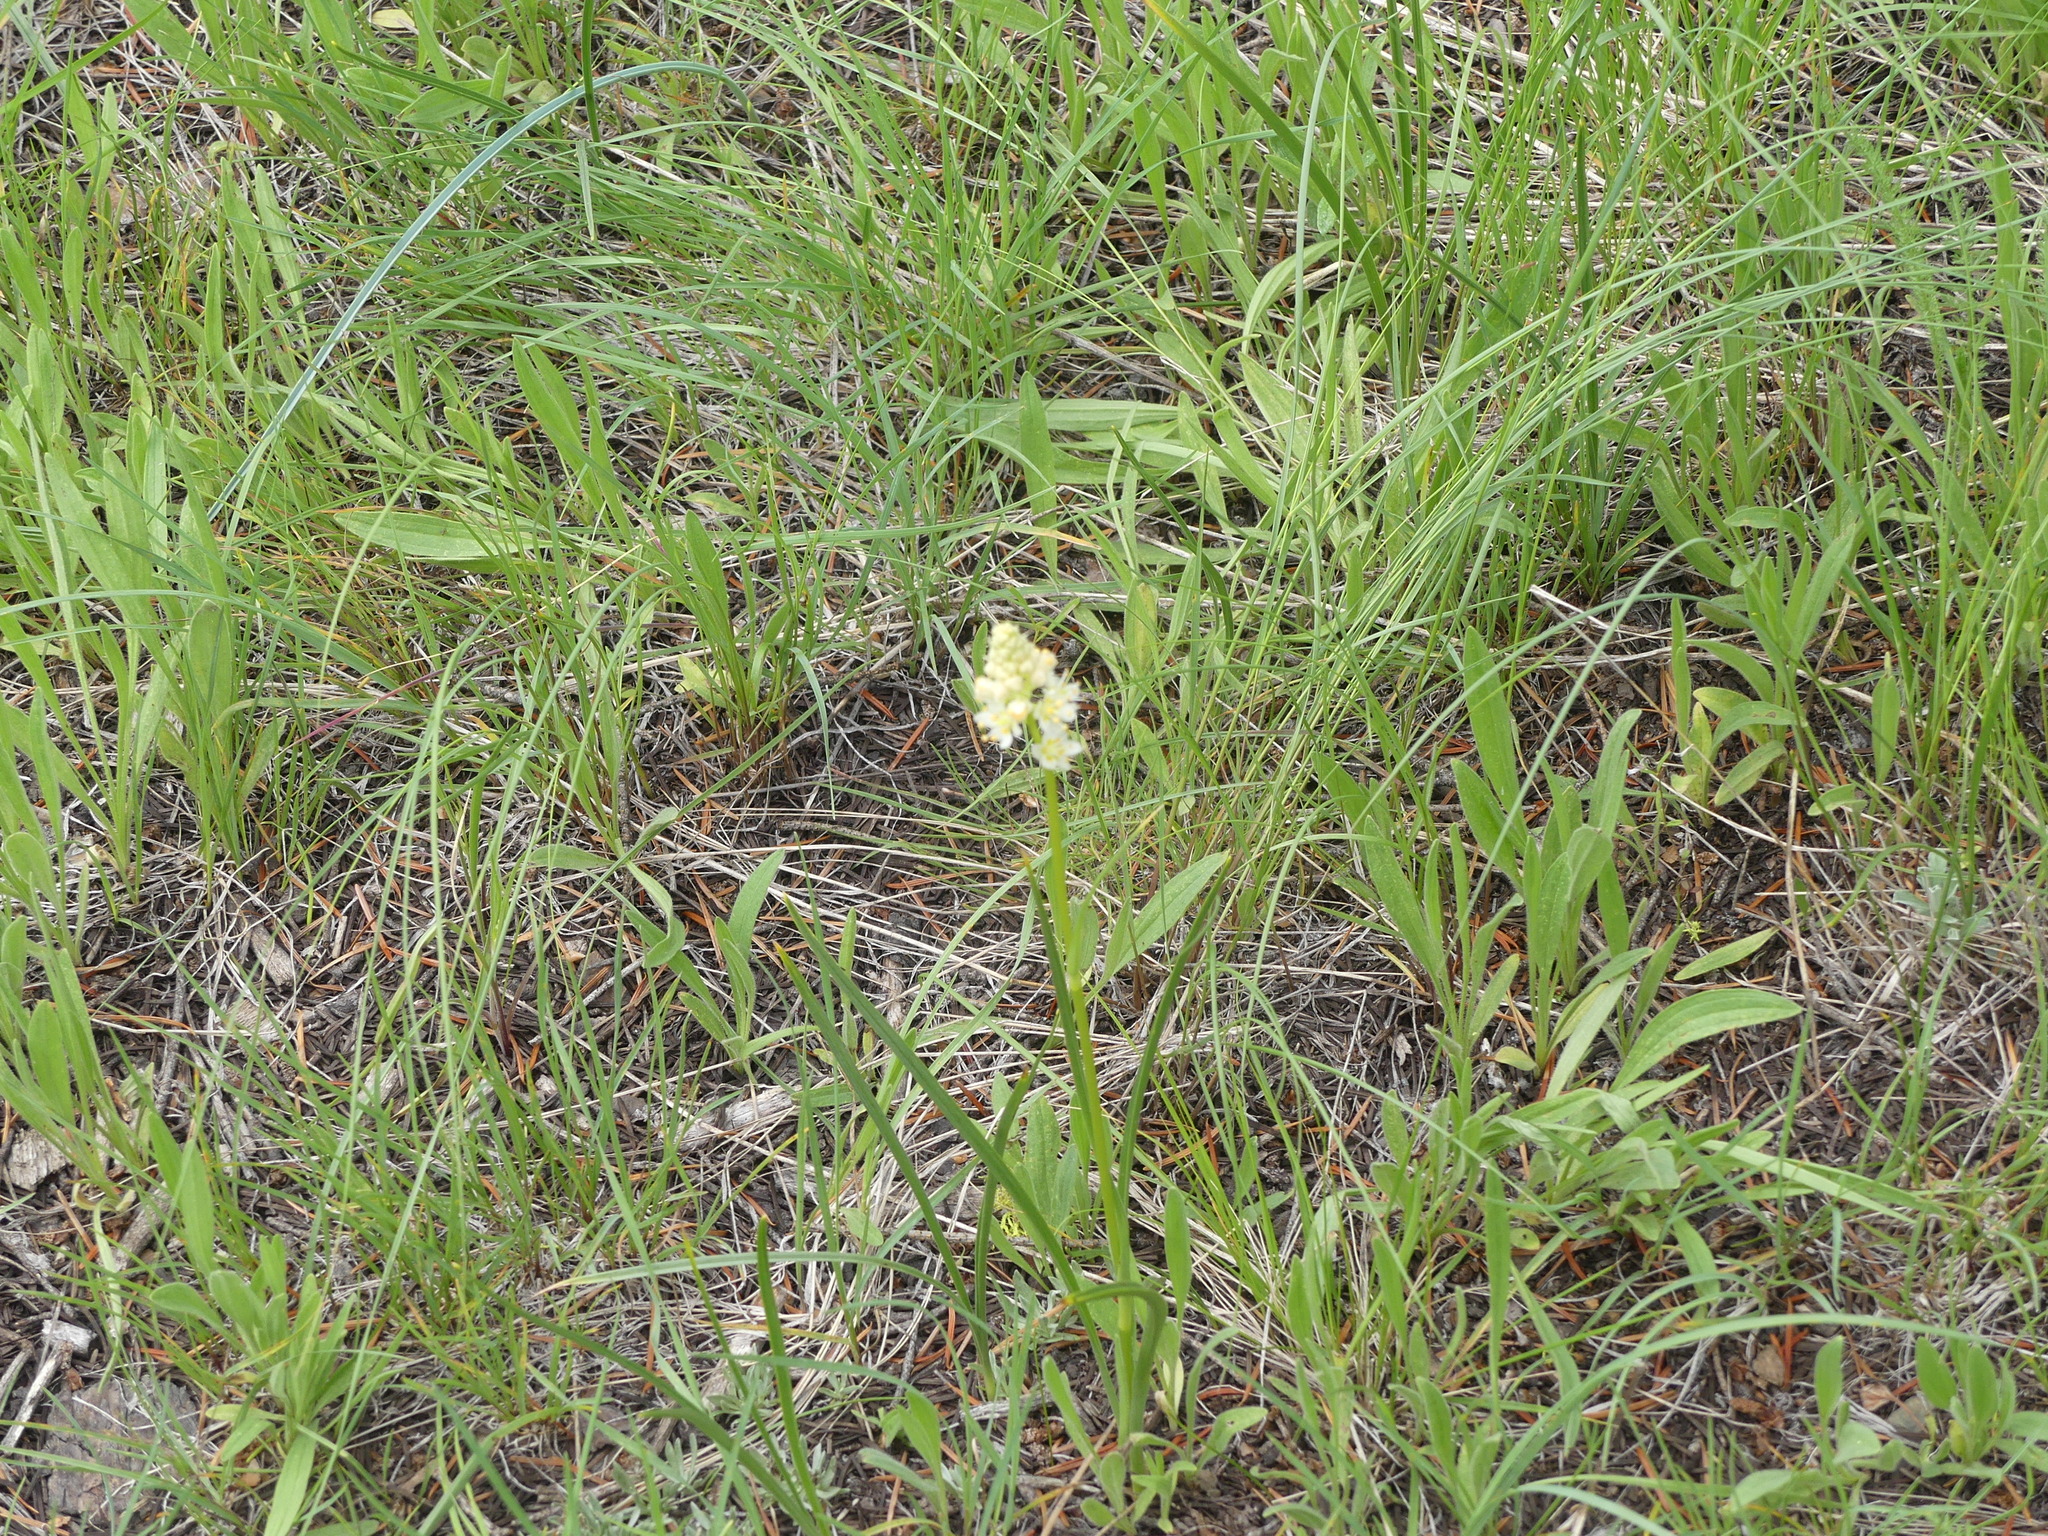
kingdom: Plantae
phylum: Tracheophyta
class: Liliopsida
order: Liliales
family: Melanthiaceae
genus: Toxicoscordion
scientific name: Toxicoscordion venenosum
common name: Meadow death camas
